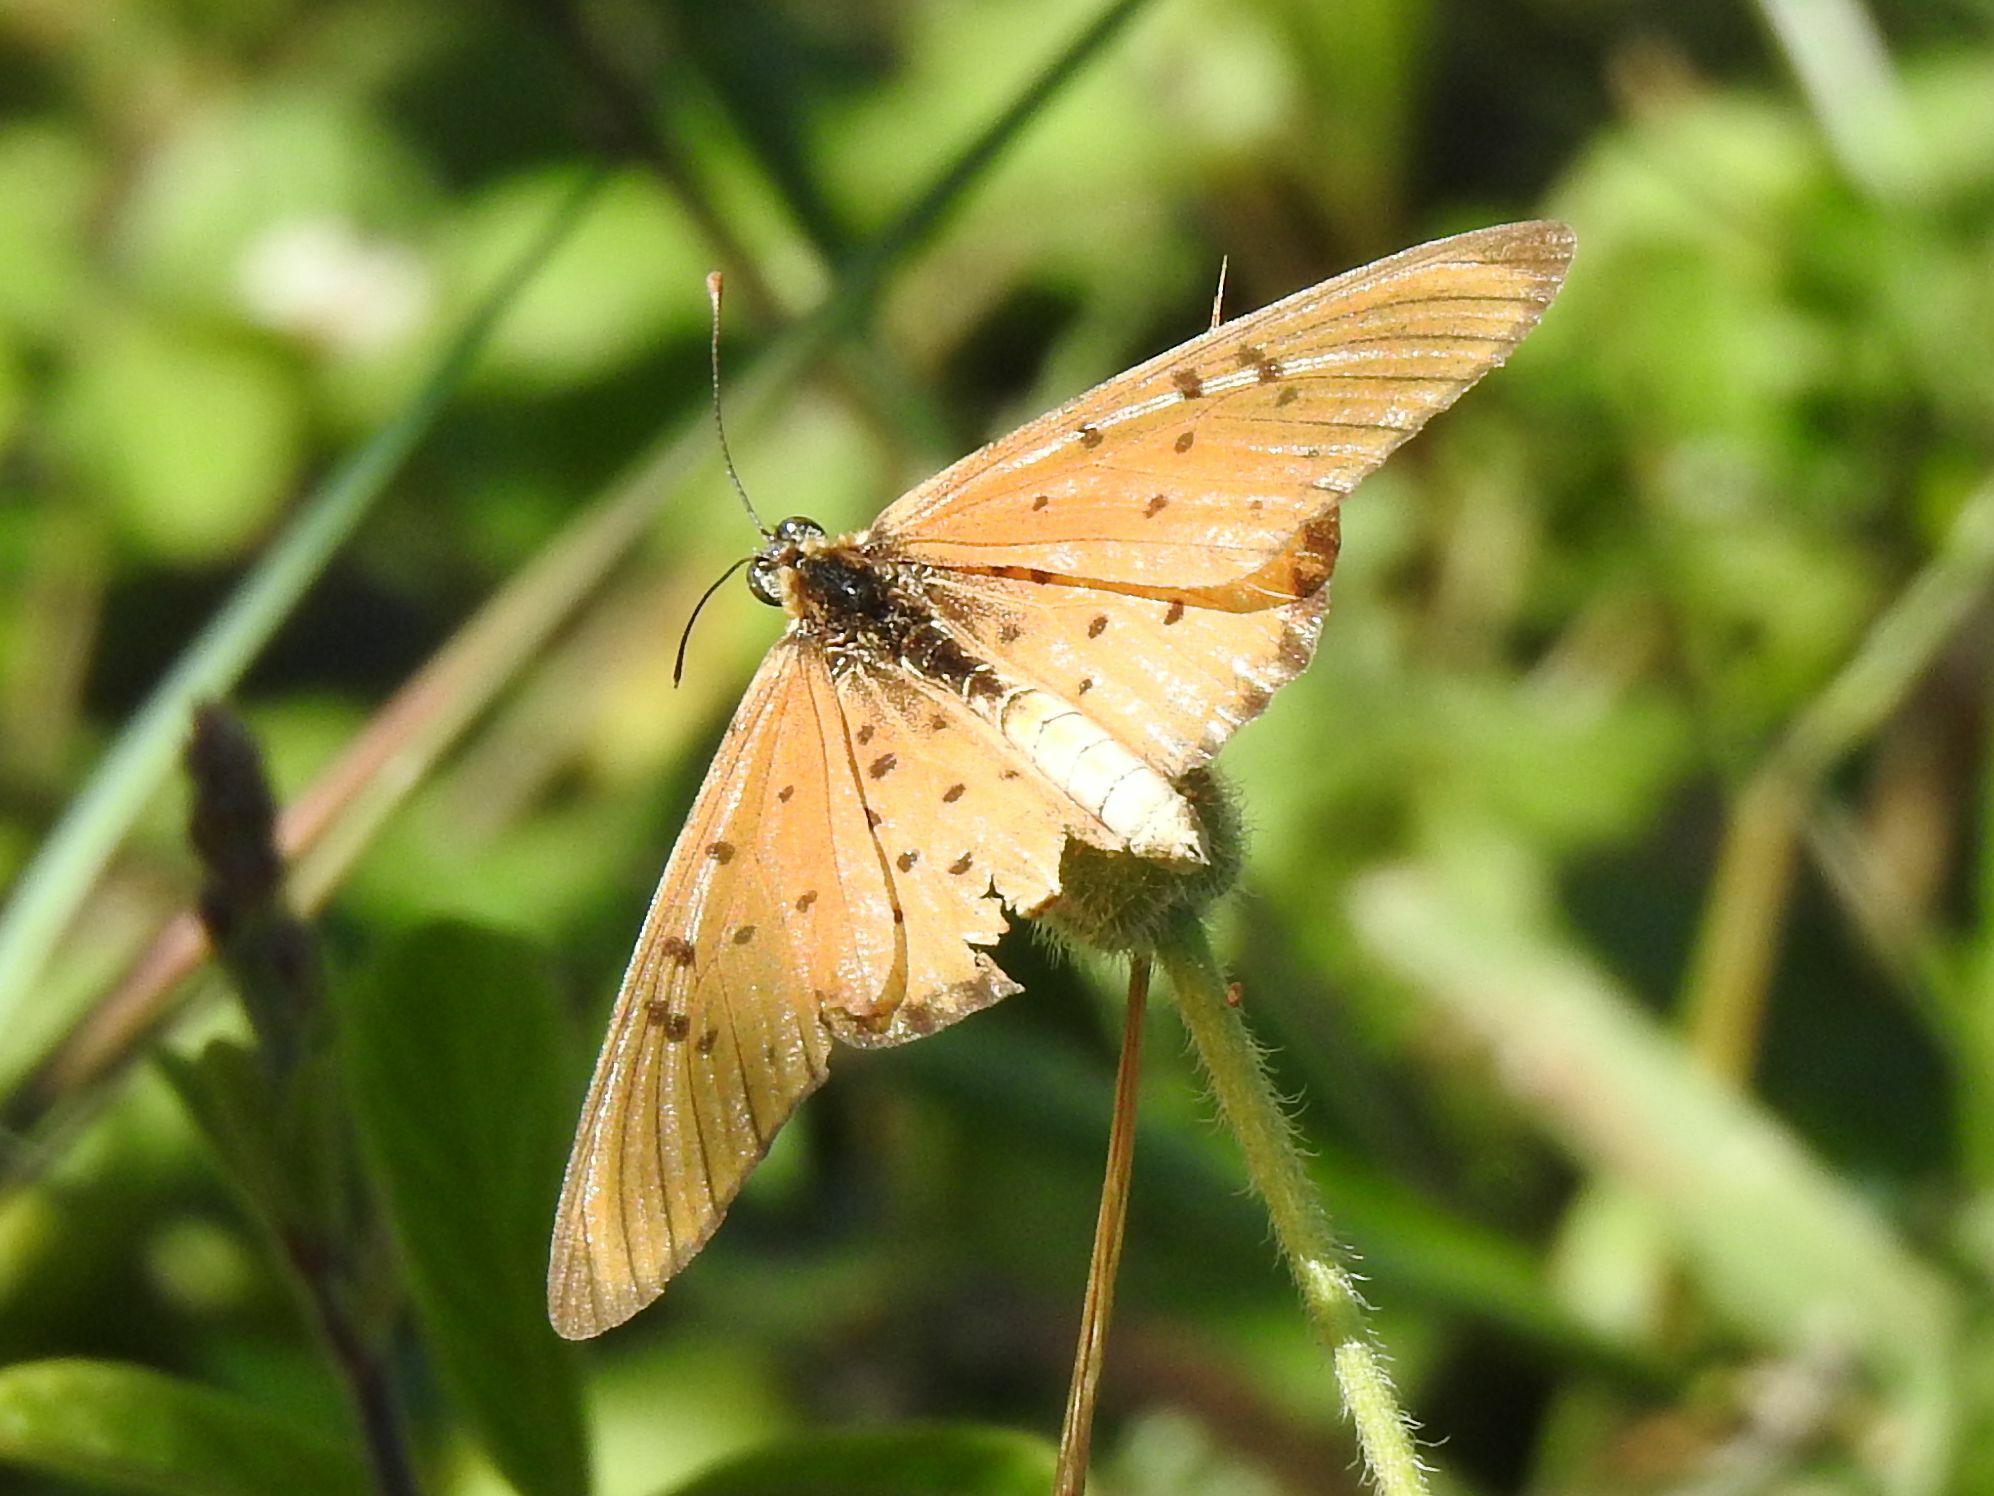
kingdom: Animalia
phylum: Arthropoda
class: Insecta
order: Lepidoptera
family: Nymphalidae
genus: Stephenia
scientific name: Stephenia
